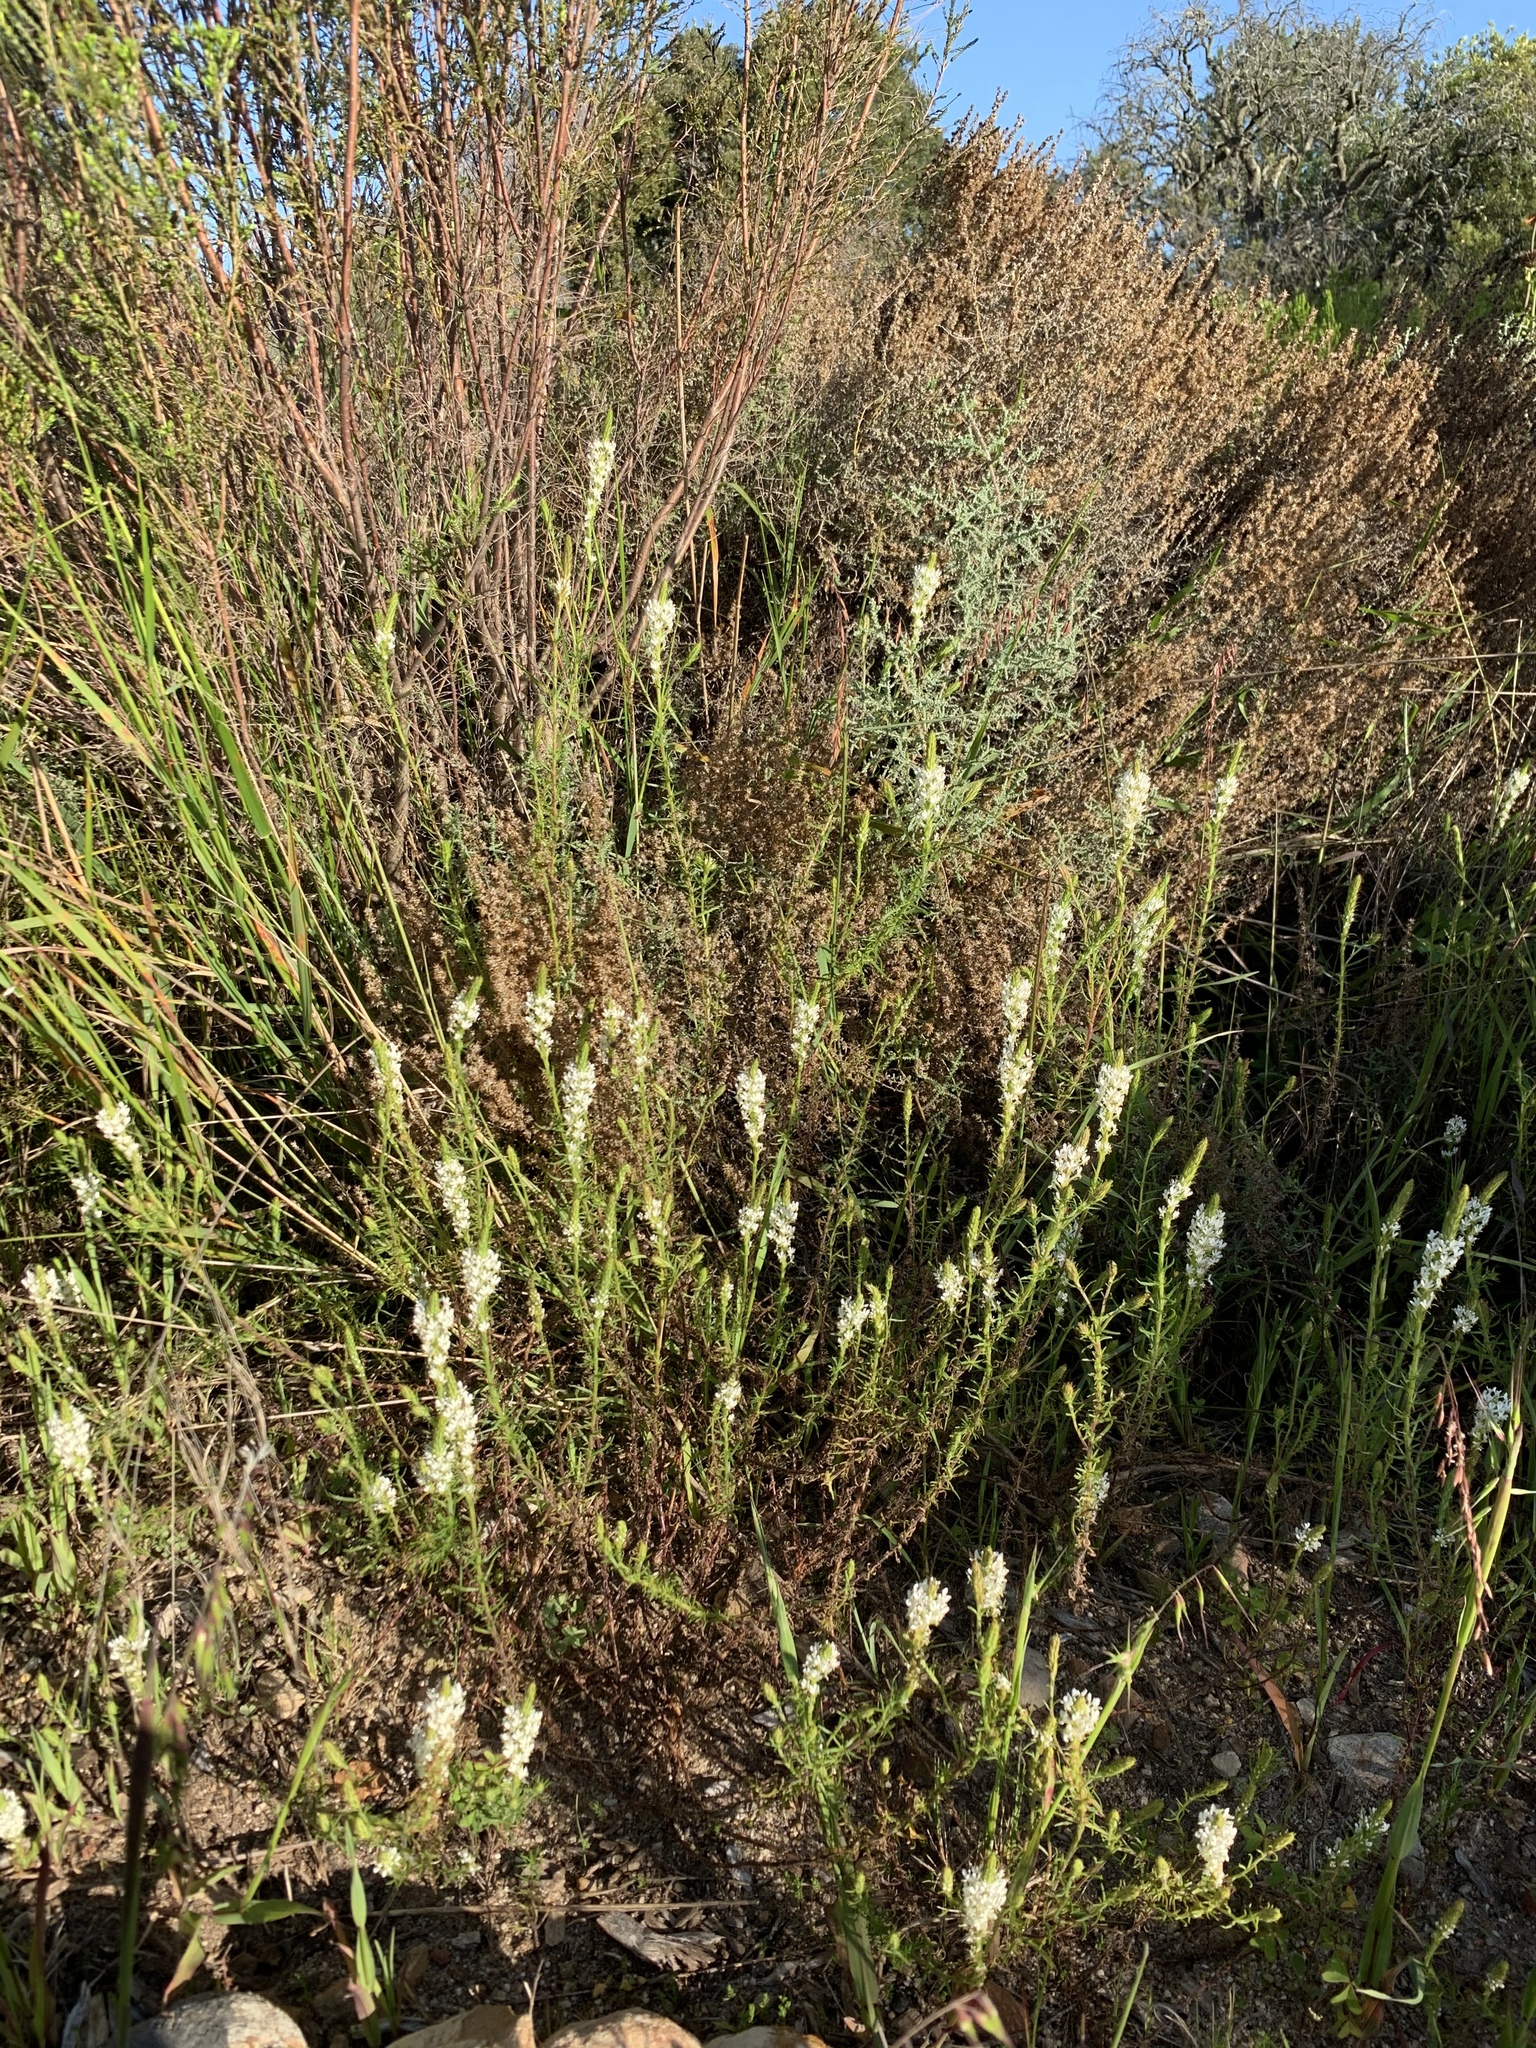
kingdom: Plantae
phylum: Tracheophyta
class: Magnoliopsida
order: Lamiales
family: Scrophulariaceae
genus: Dischisma
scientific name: Dischisma ciliatum
